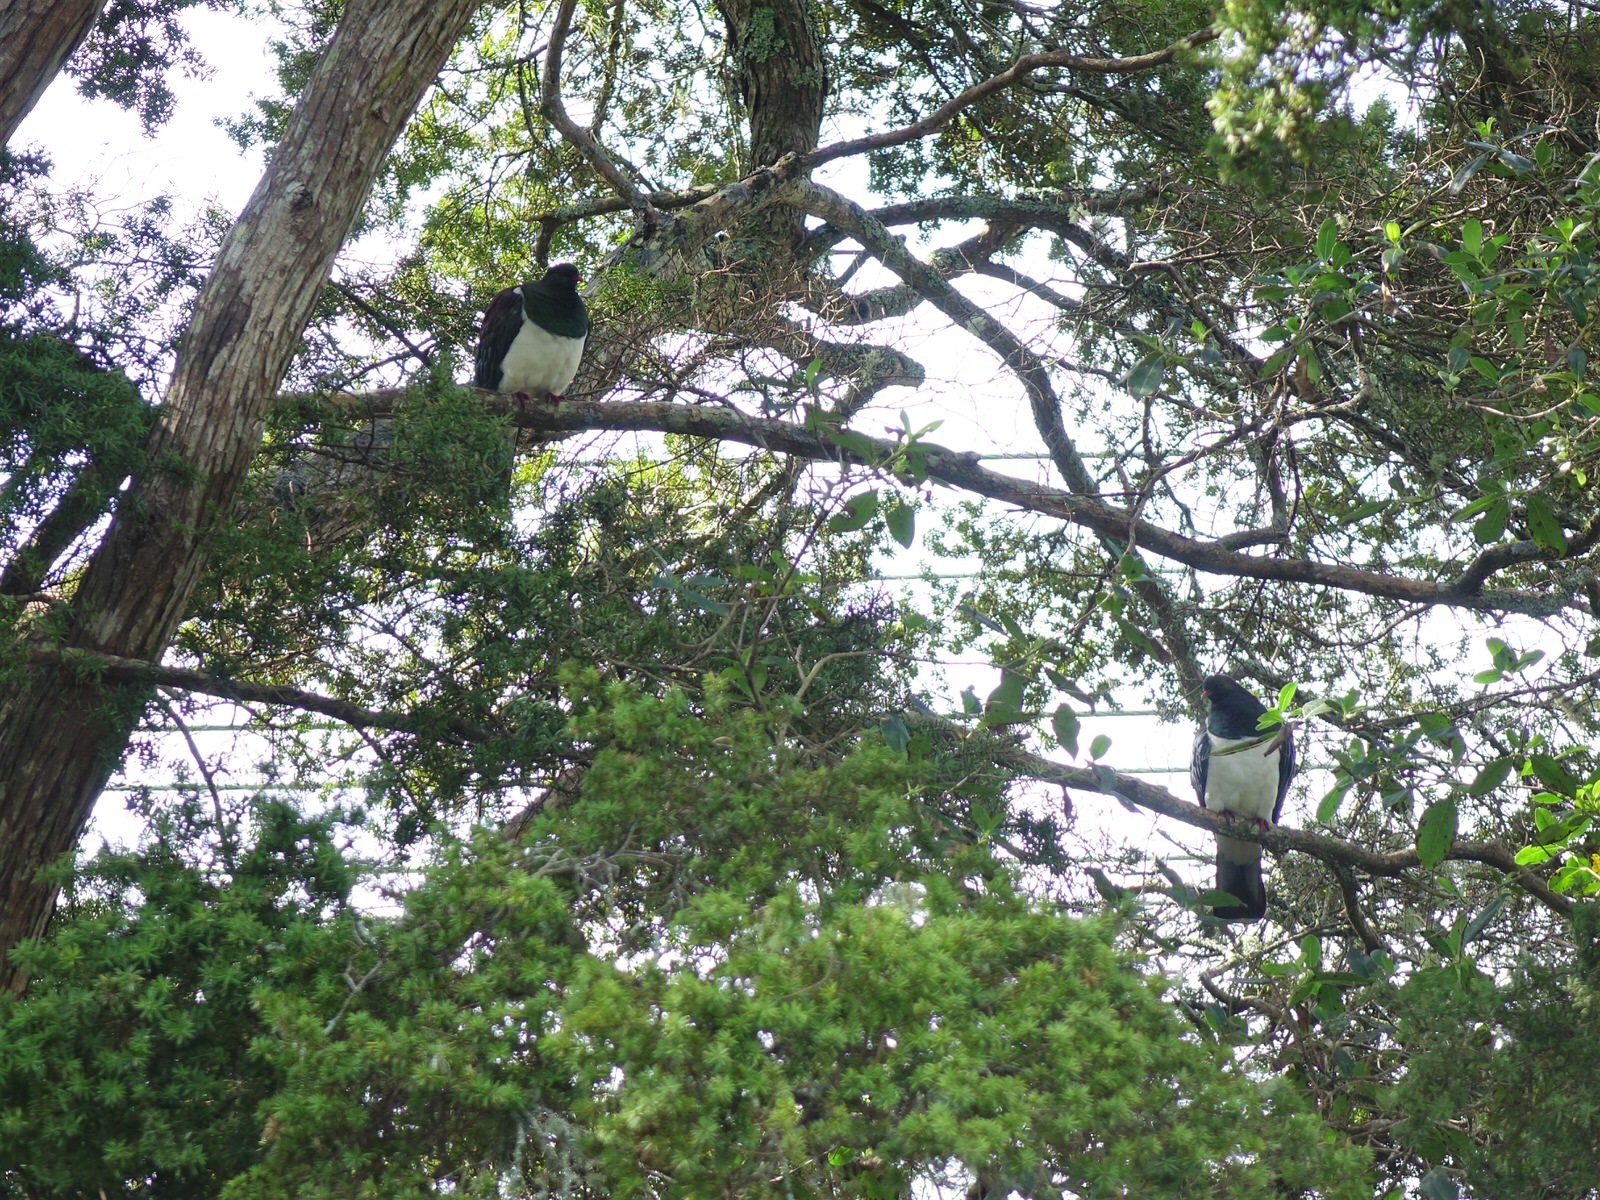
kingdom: Animalia
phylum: Chordata
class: Aves
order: Columbiformes
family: Columbidae
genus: Hemiphaga
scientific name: Hemiphaga novaeseelandiae
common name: New zealand pigeon
